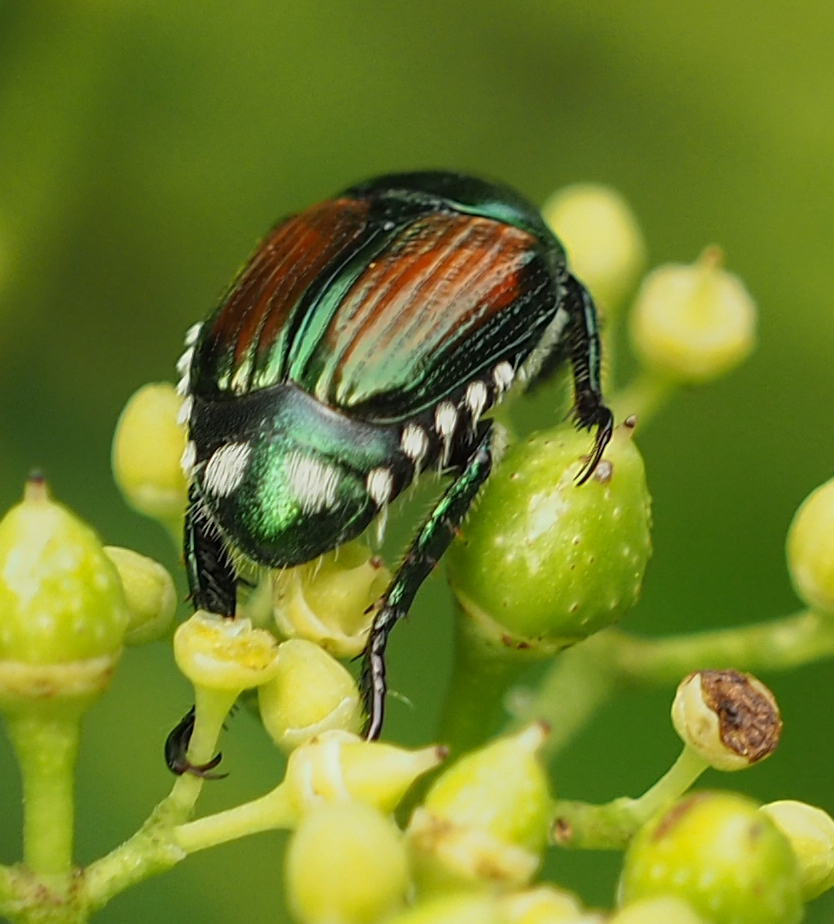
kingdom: Animalia
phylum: Arthropoda
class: Insecta
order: Coleoptera
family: Scarabaeidae
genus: Popillia
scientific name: Popillia japonica
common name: Japanese beetle
